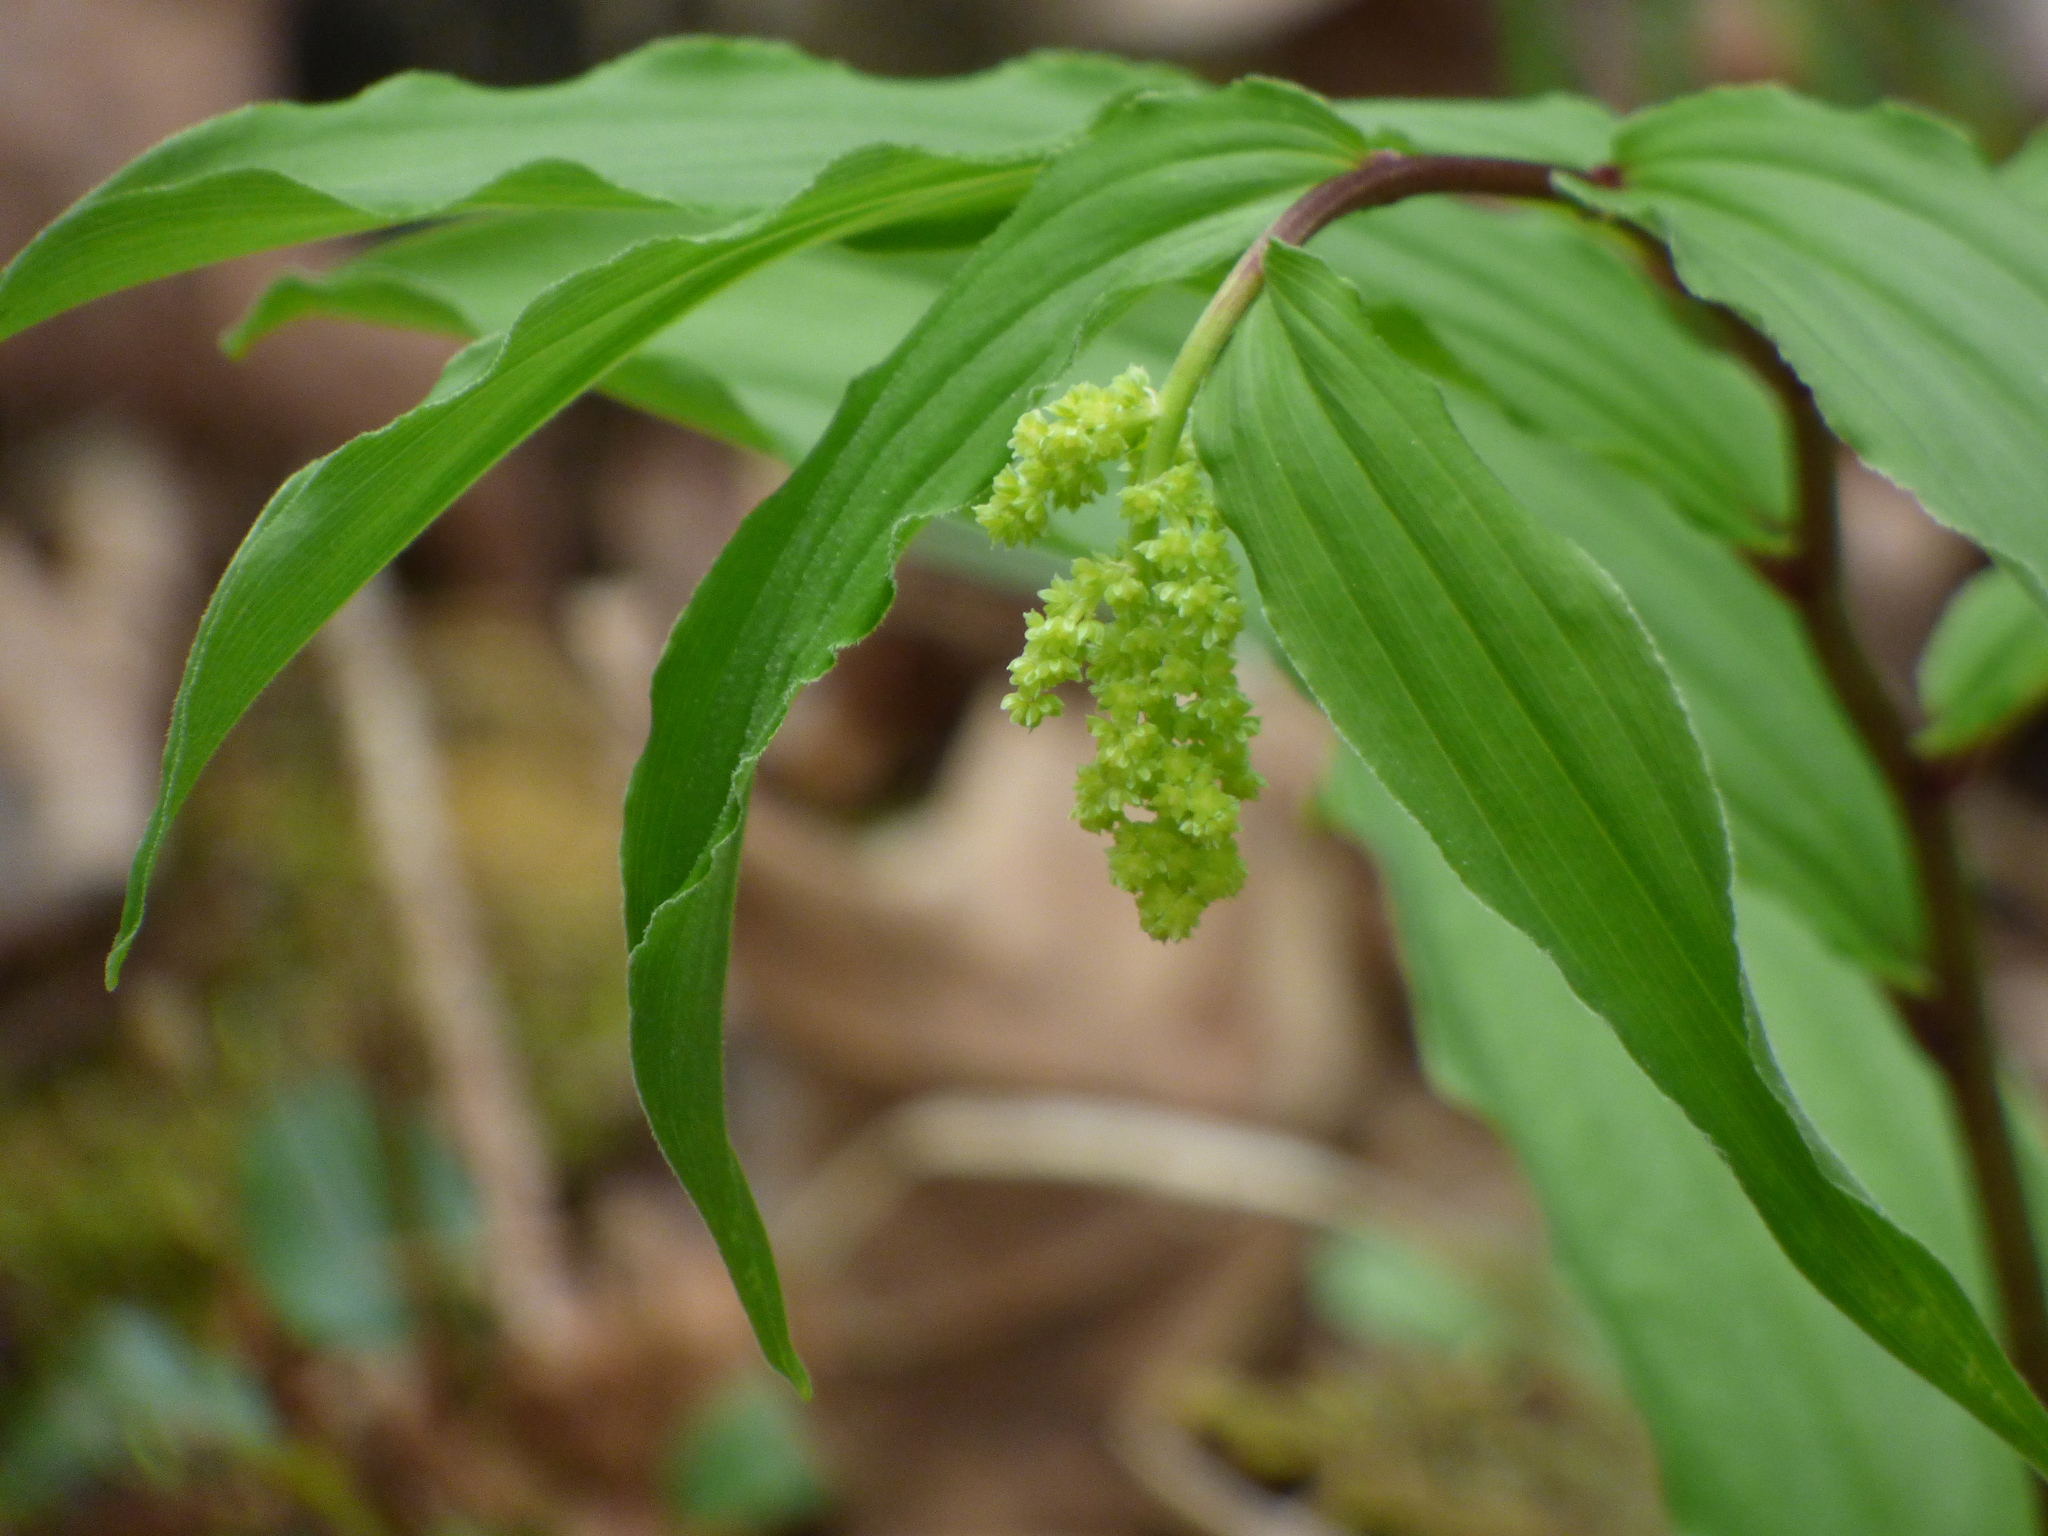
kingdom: Plantae
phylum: Tracheophyta
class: Liliopsida
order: Asparagales
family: Asparagaceae
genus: Maianthemum
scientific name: Maianthemum racemosum
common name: False spikenard
